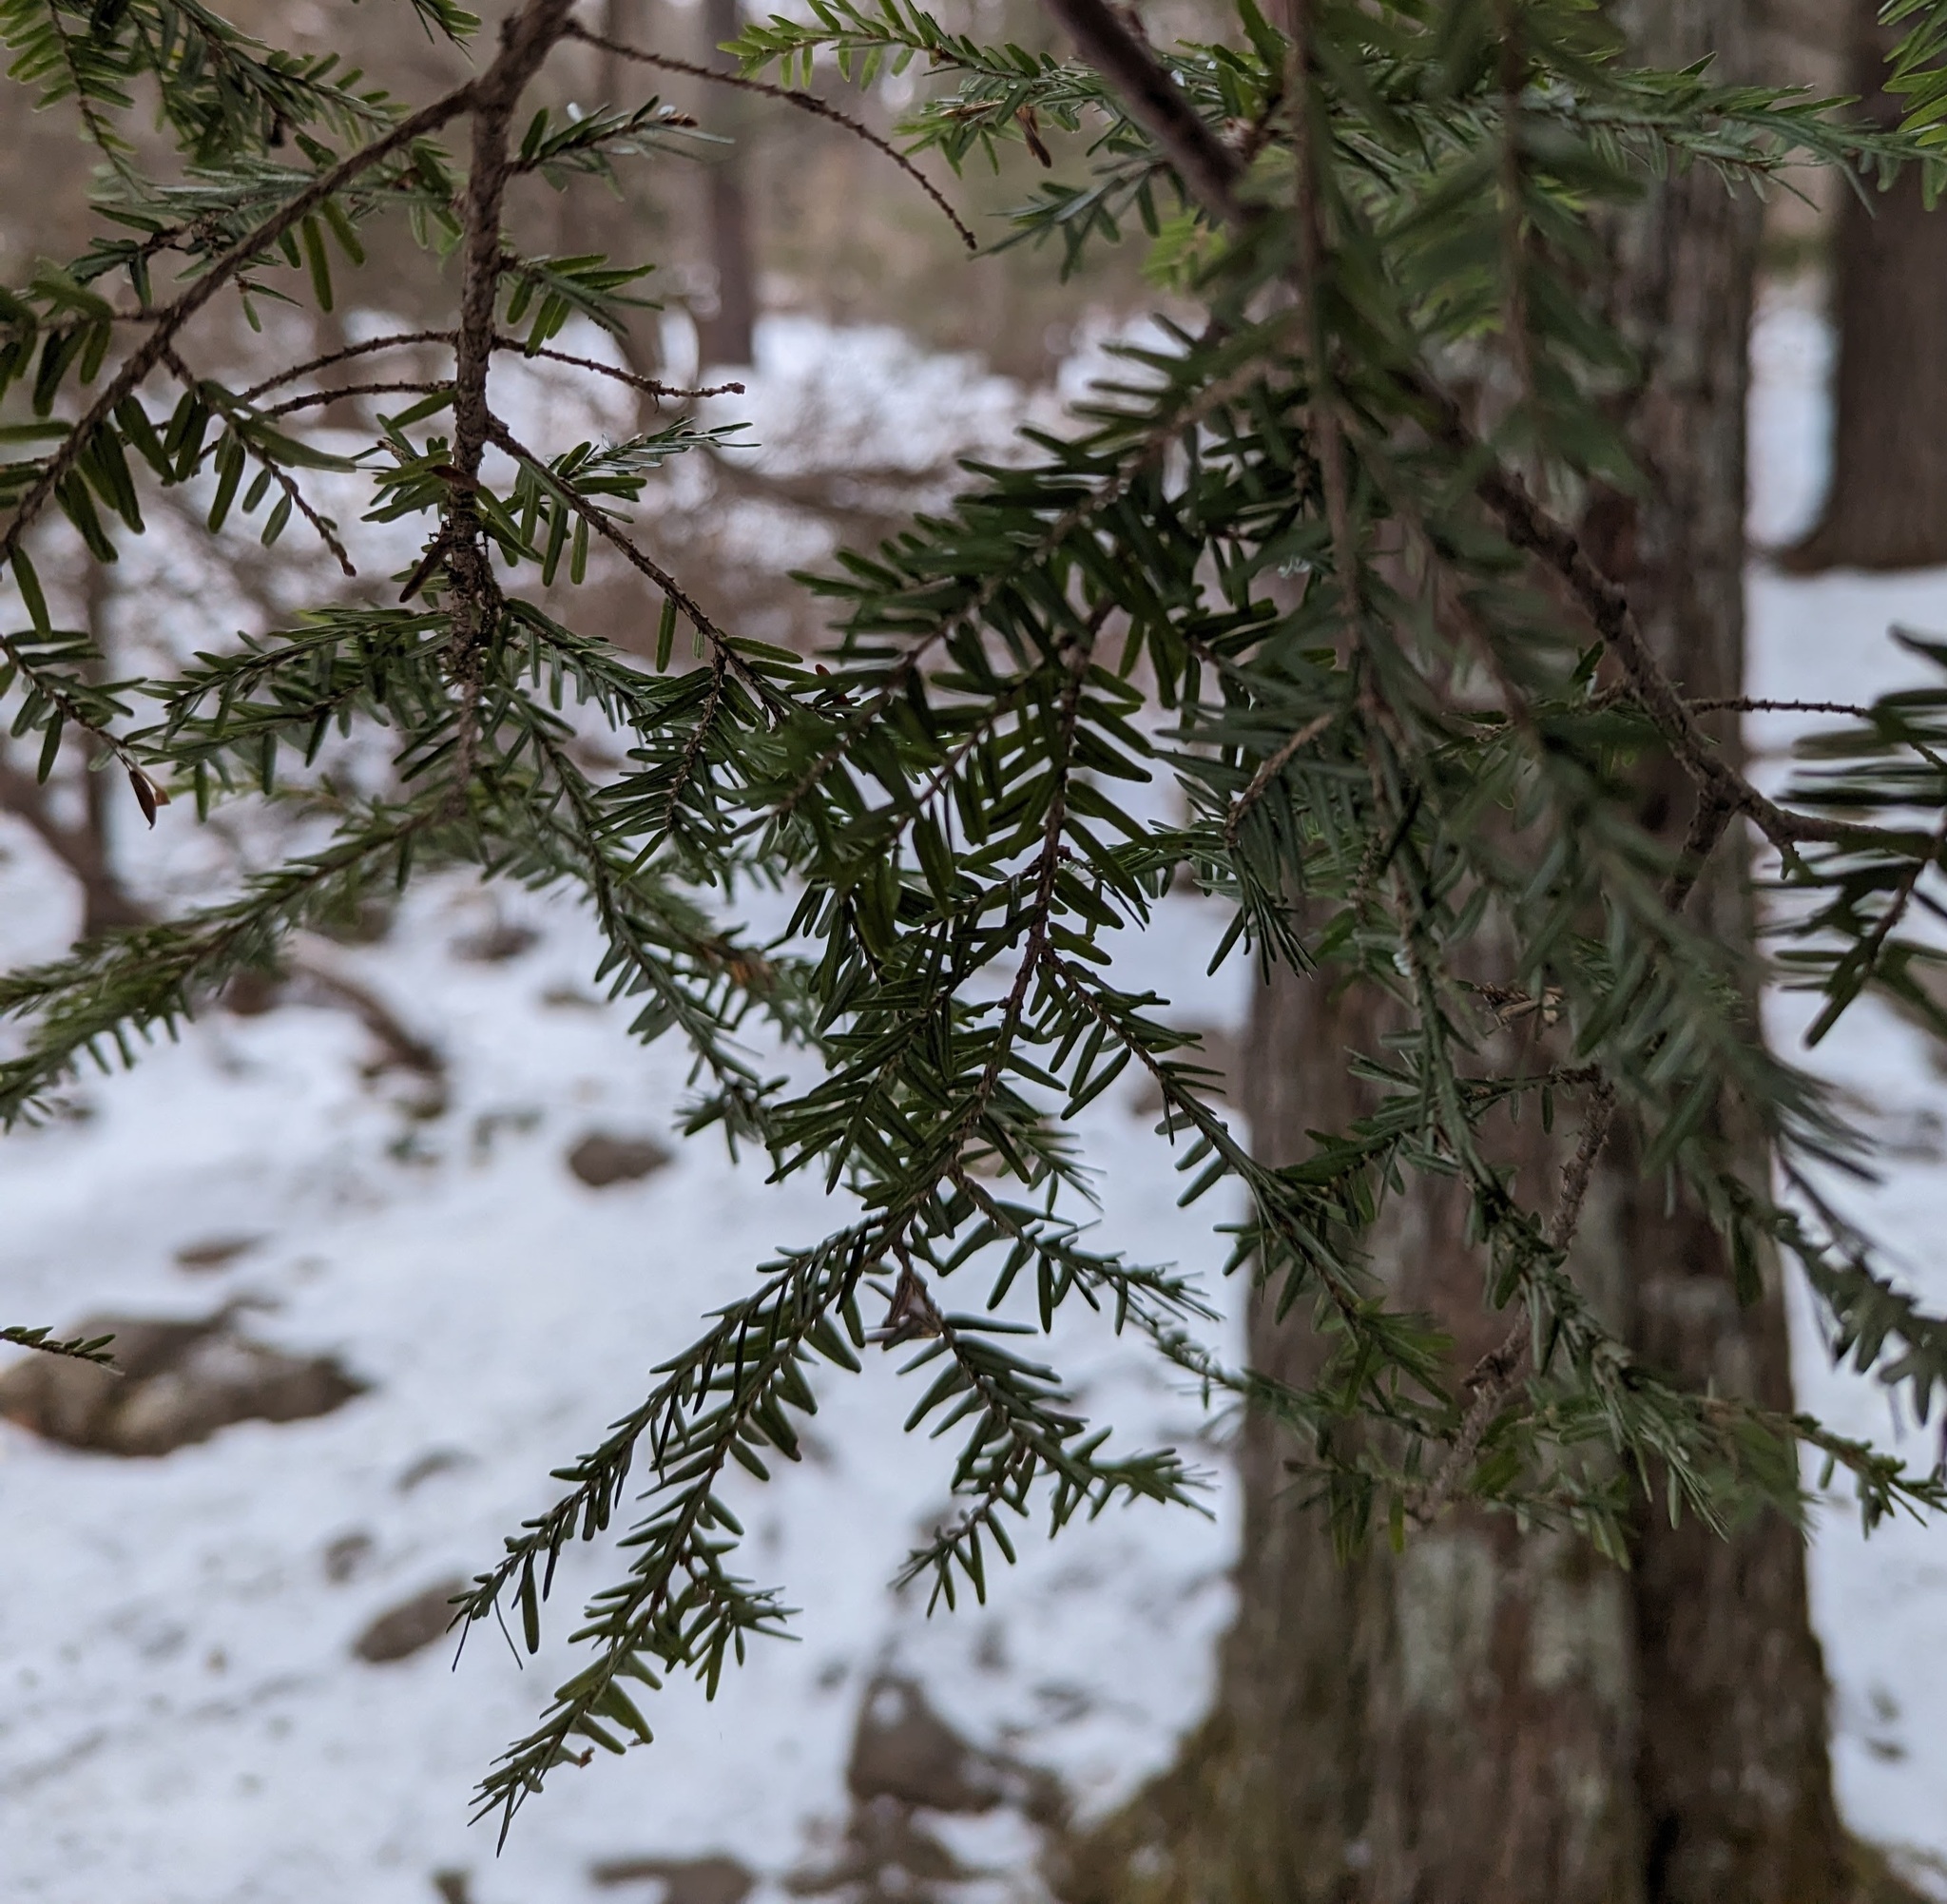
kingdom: Plantae
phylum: Tracheophyta
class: Pinopsida
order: Pinales
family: Pinaceae
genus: Tsuga
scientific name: Tsuga canadensis
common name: Eastern hemlock
